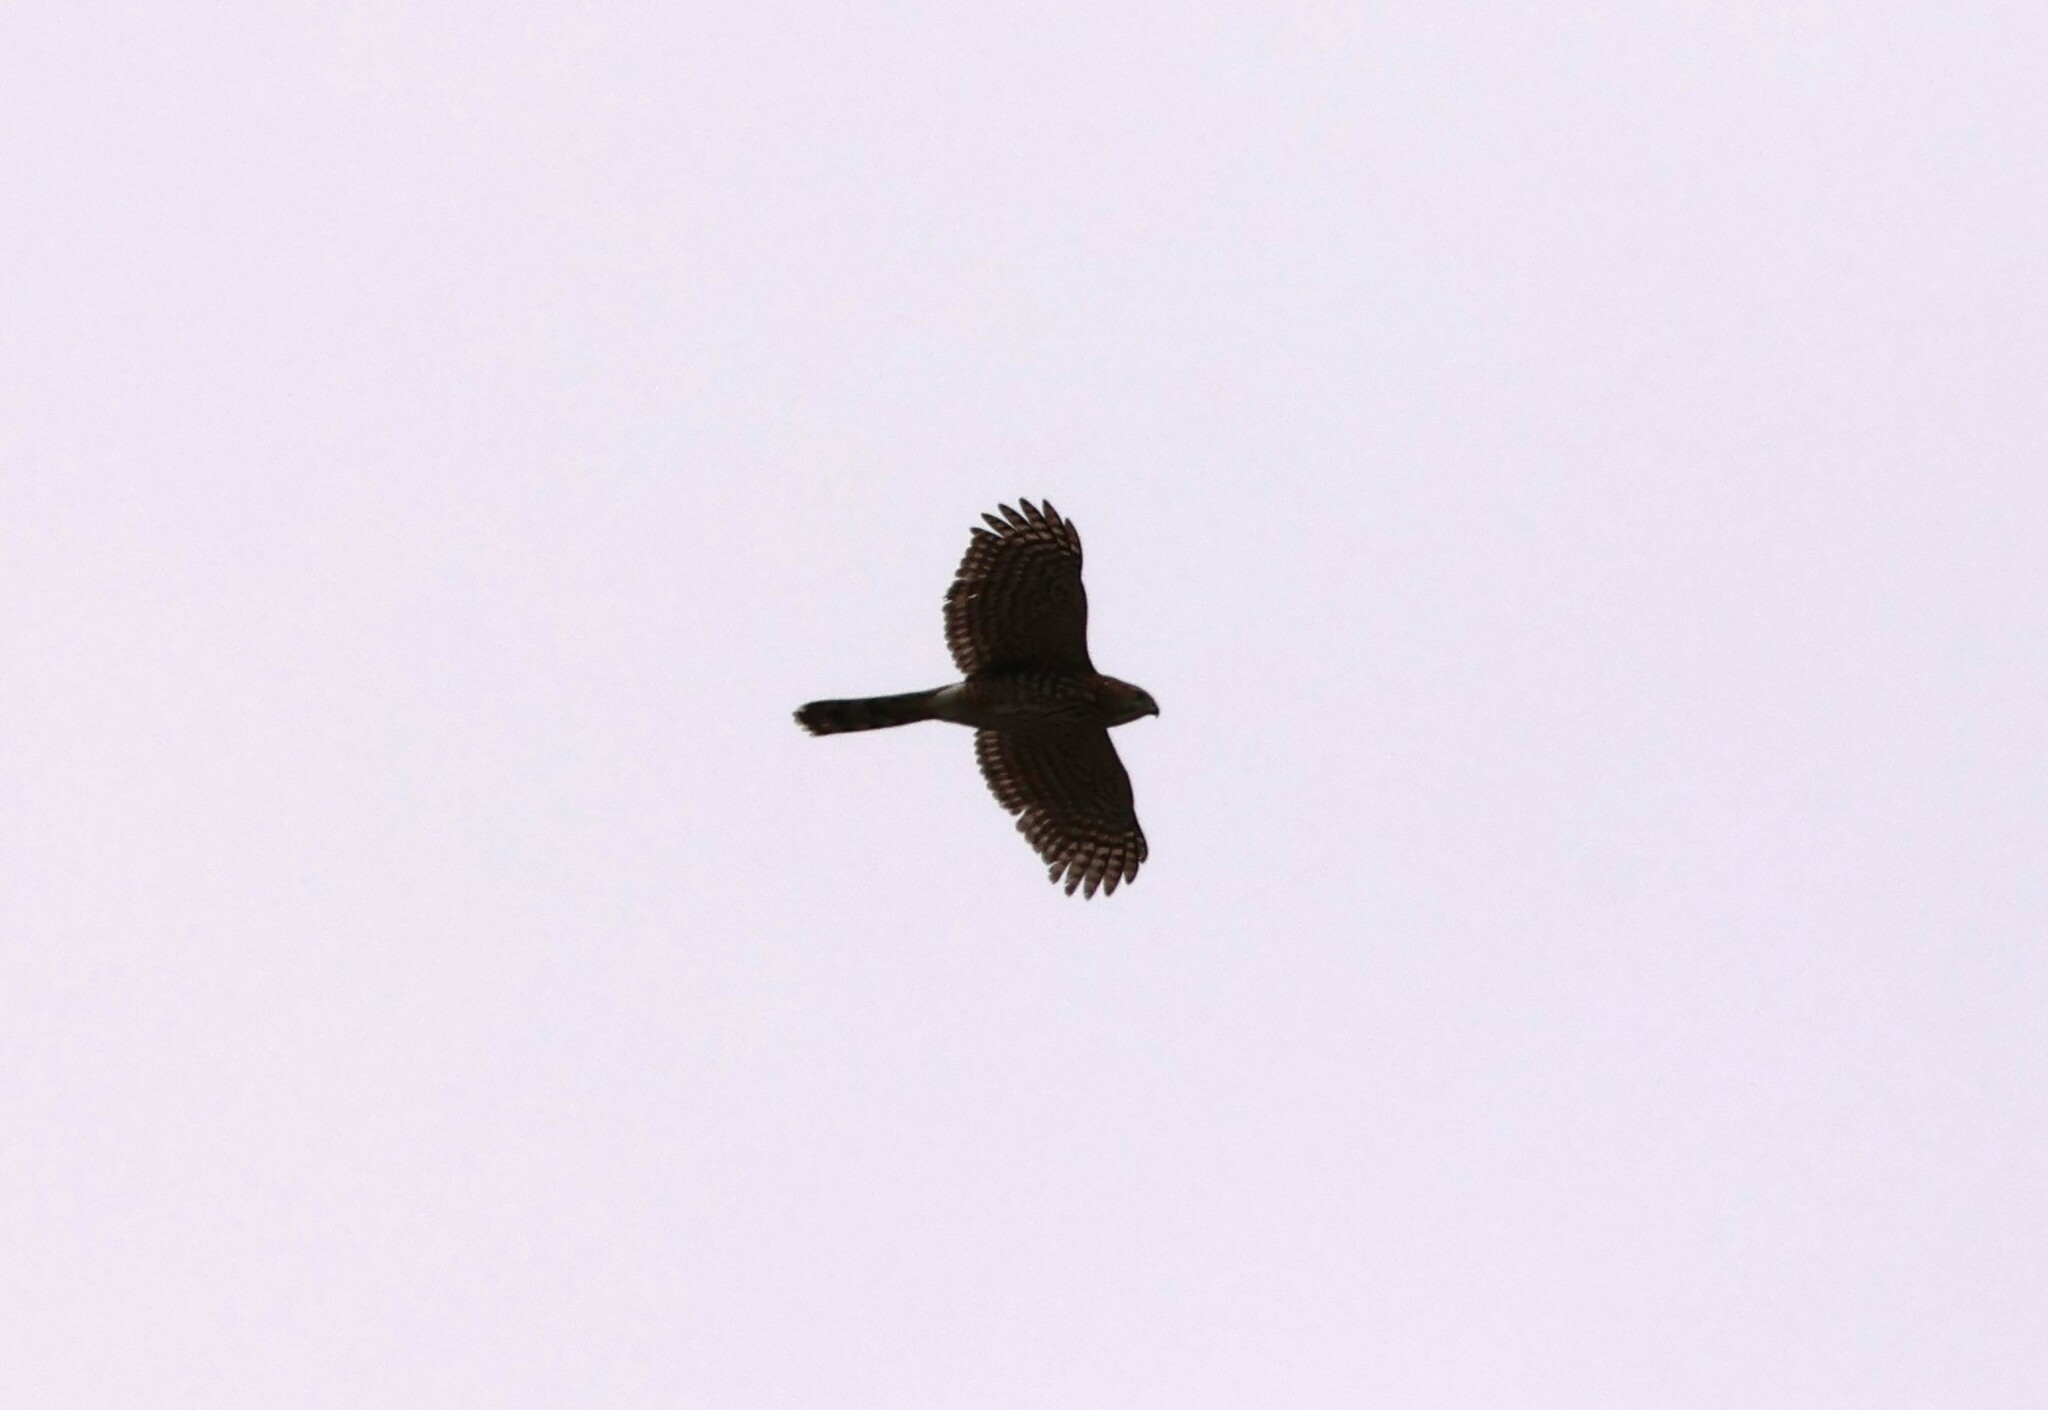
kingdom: Animalia
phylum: Chordata
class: Aves
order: Accipitriformes
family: Accipitridae
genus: Accipiter
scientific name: Accipiter cooperii
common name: Cooper's hawk
